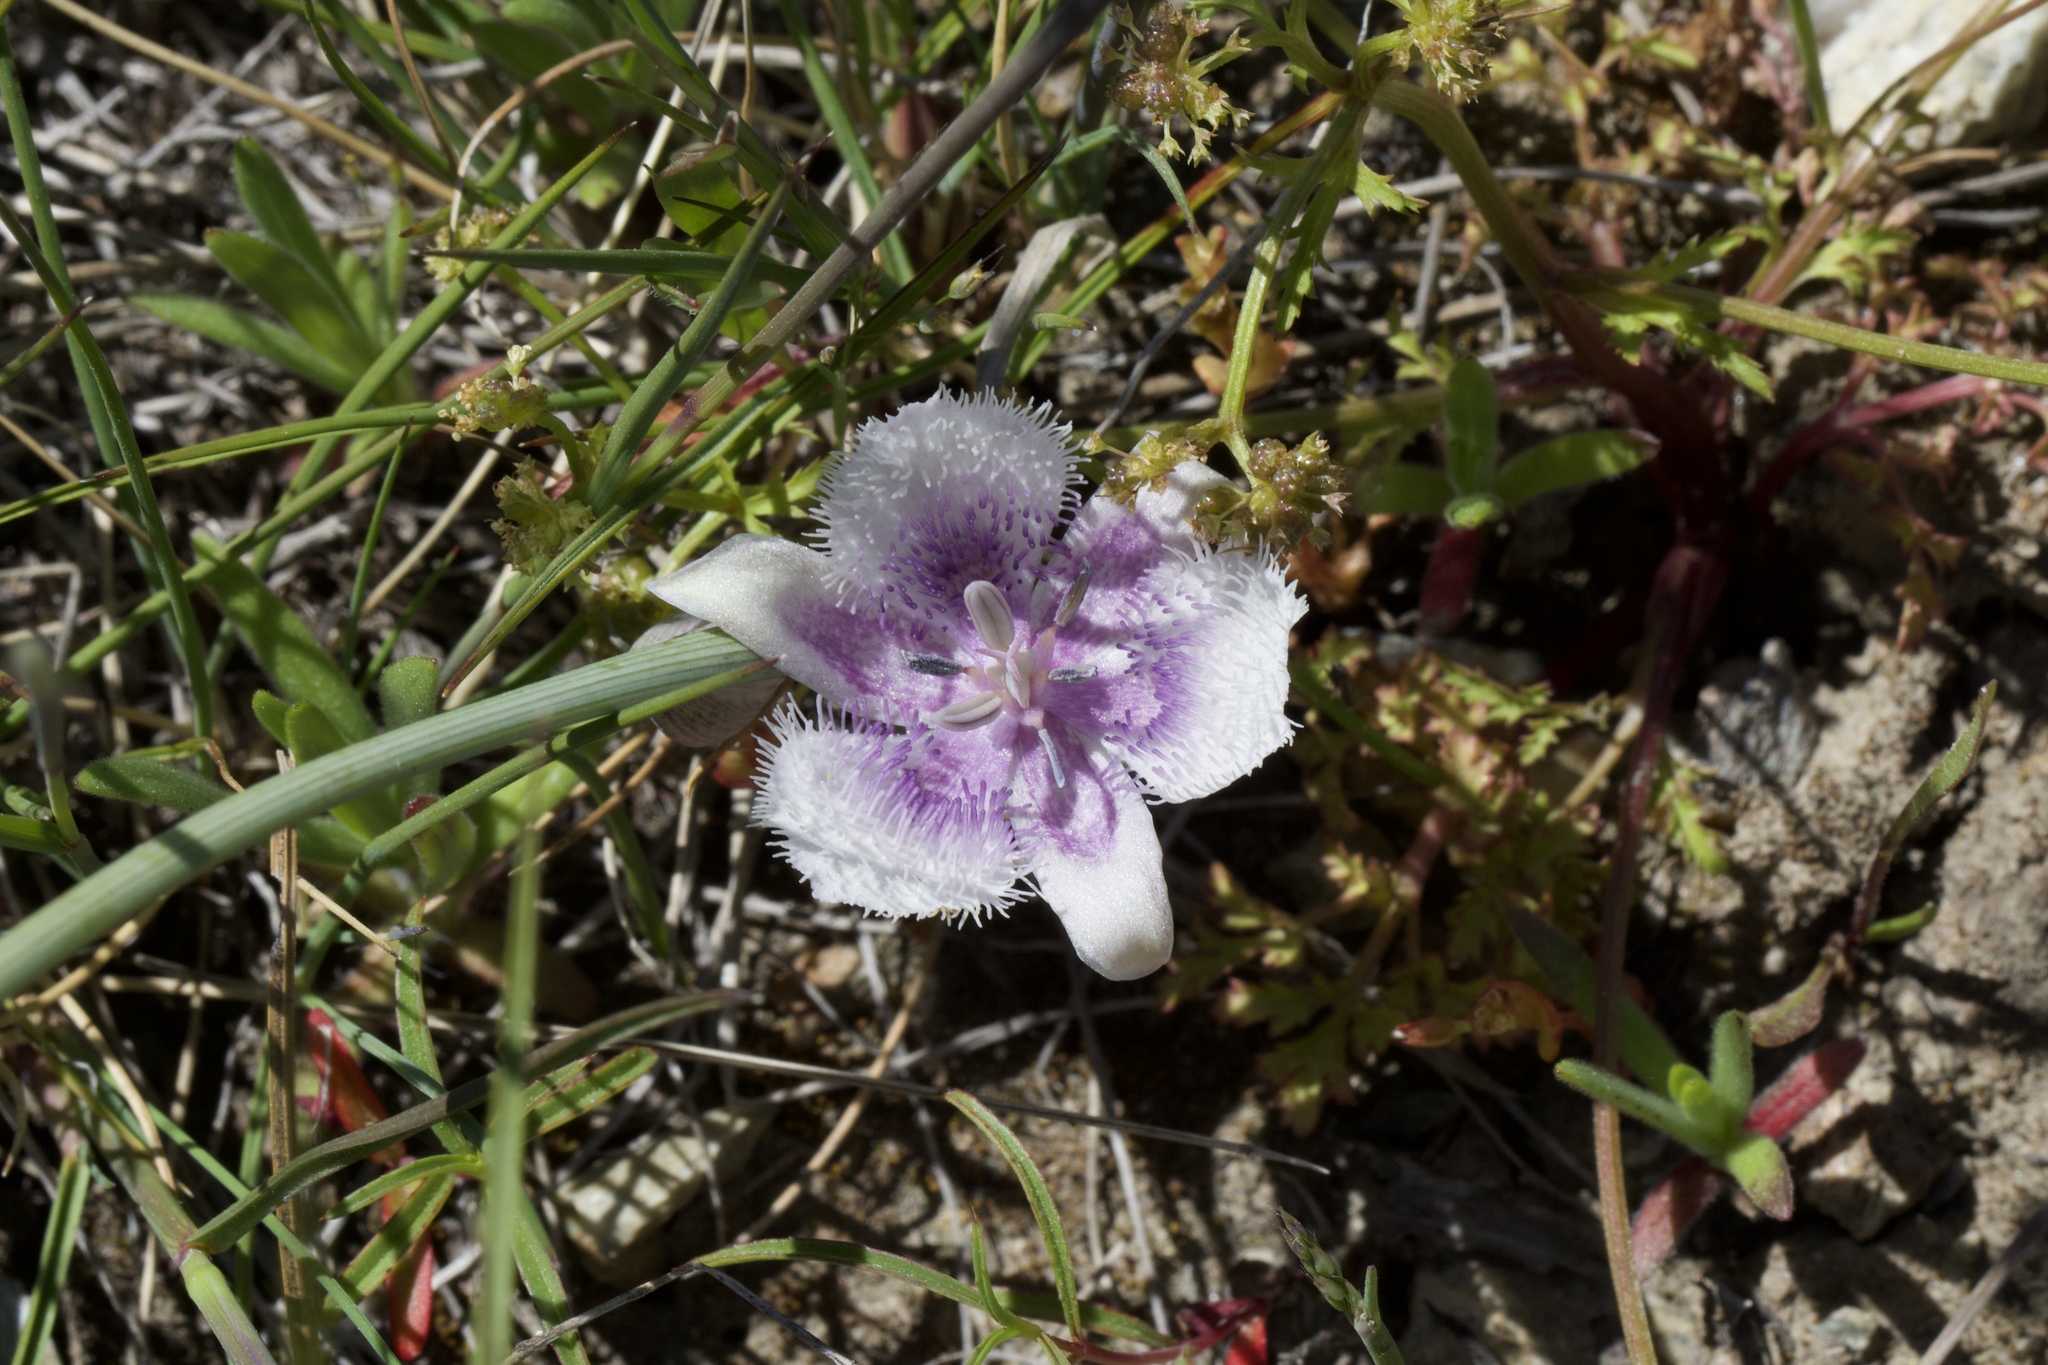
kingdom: Plantae
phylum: Tracheophyta
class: Liliopsida
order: Liliales
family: Liliaceae
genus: Calochortus
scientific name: Calochortus coeruleus
